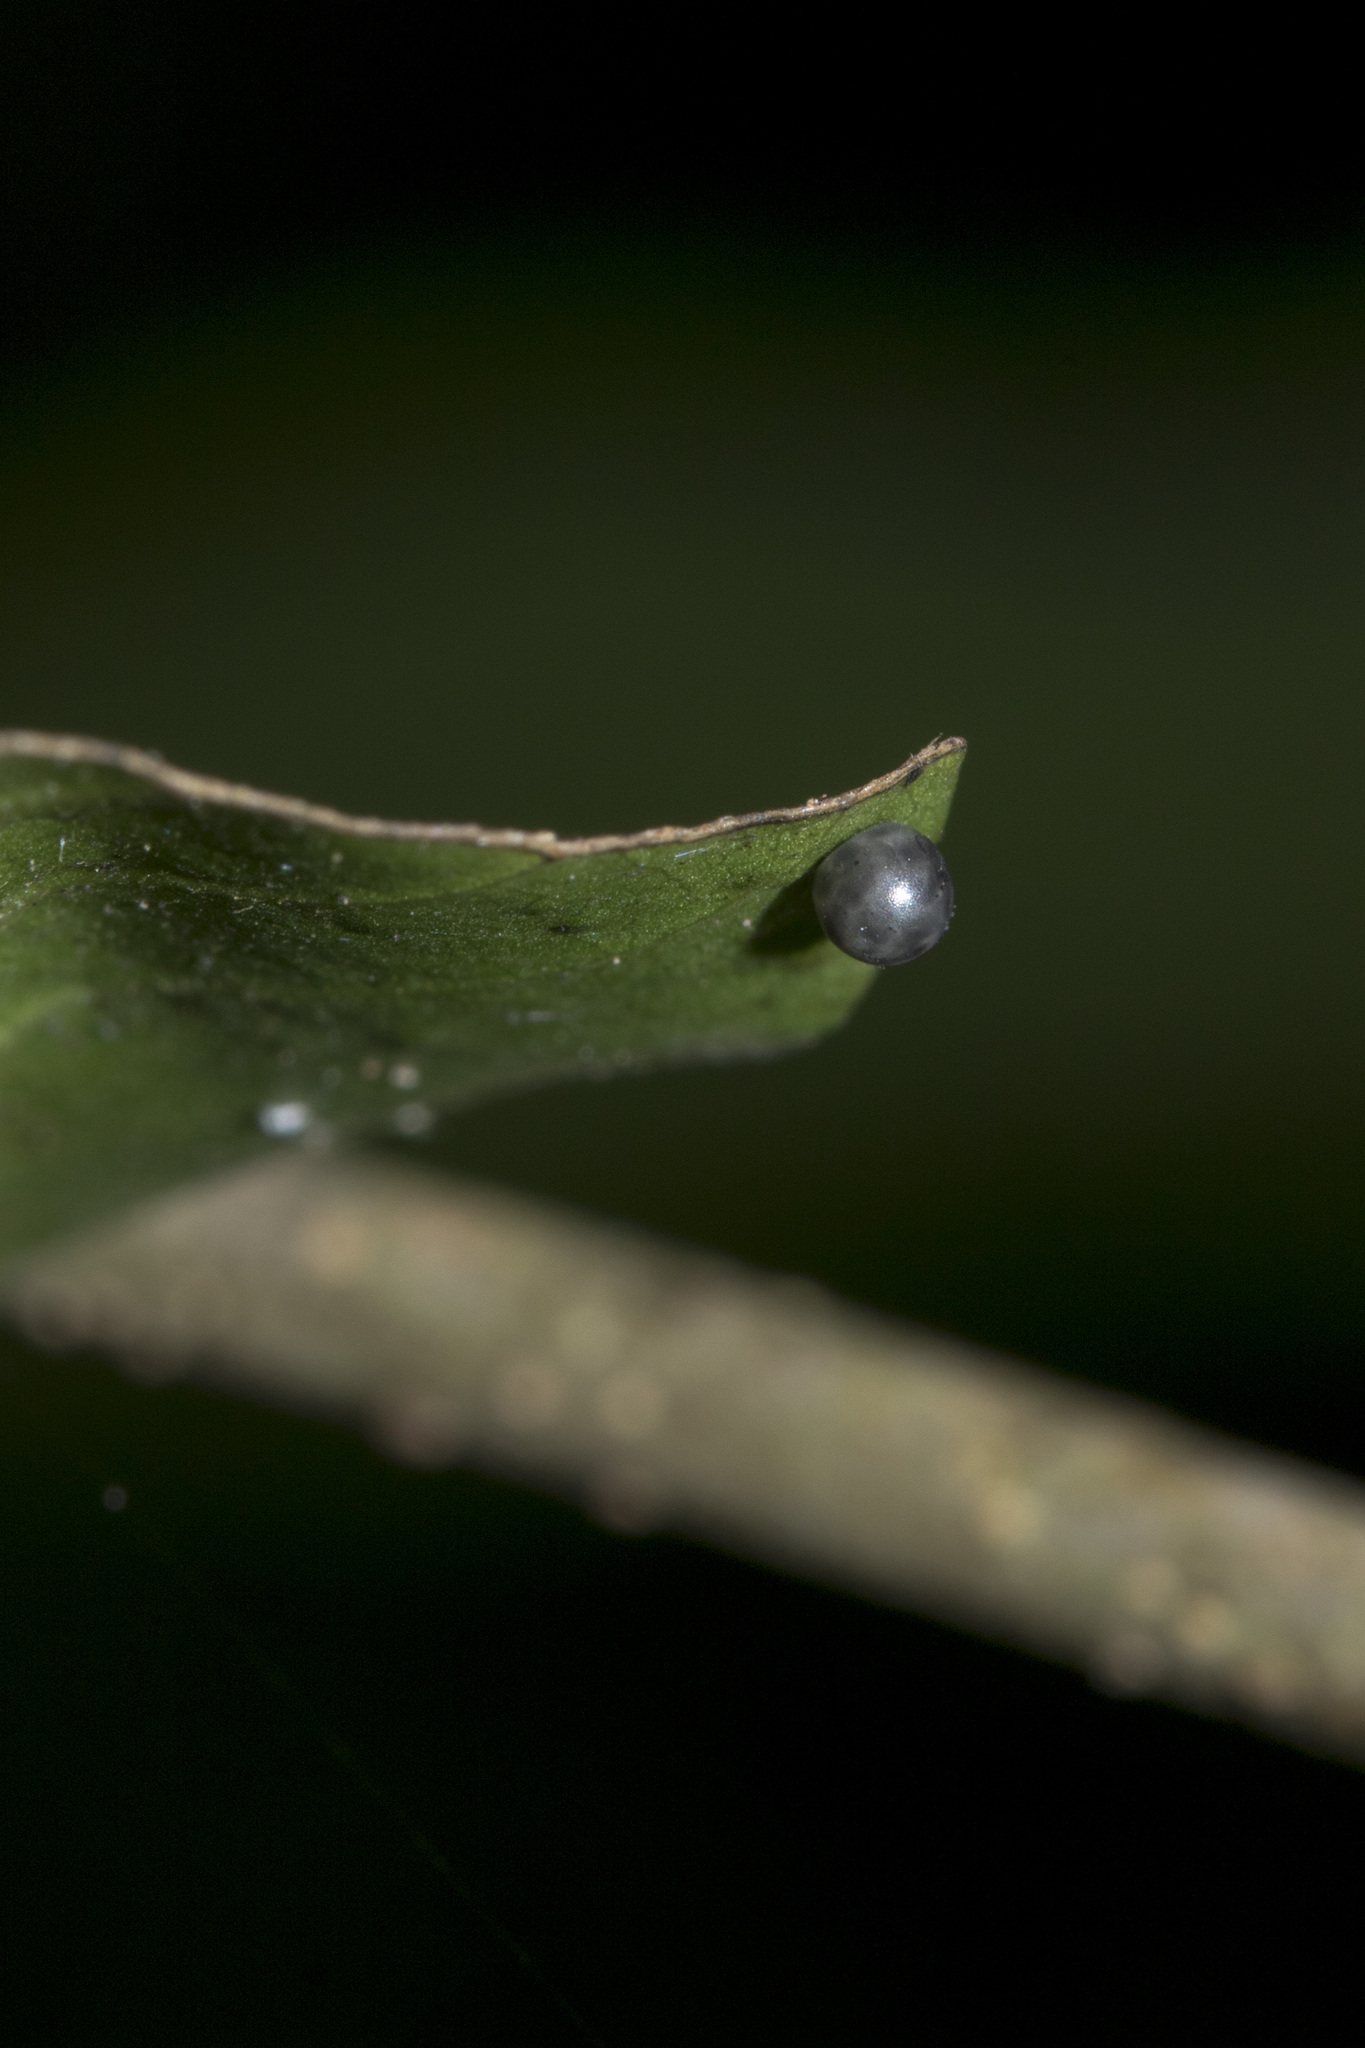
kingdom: Animalia
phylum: Arthropoda
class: Insecta
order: Lepidoptera
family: Papilionidae
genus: Graphium
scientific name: Graphium agamemnon
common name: Tailed jay
